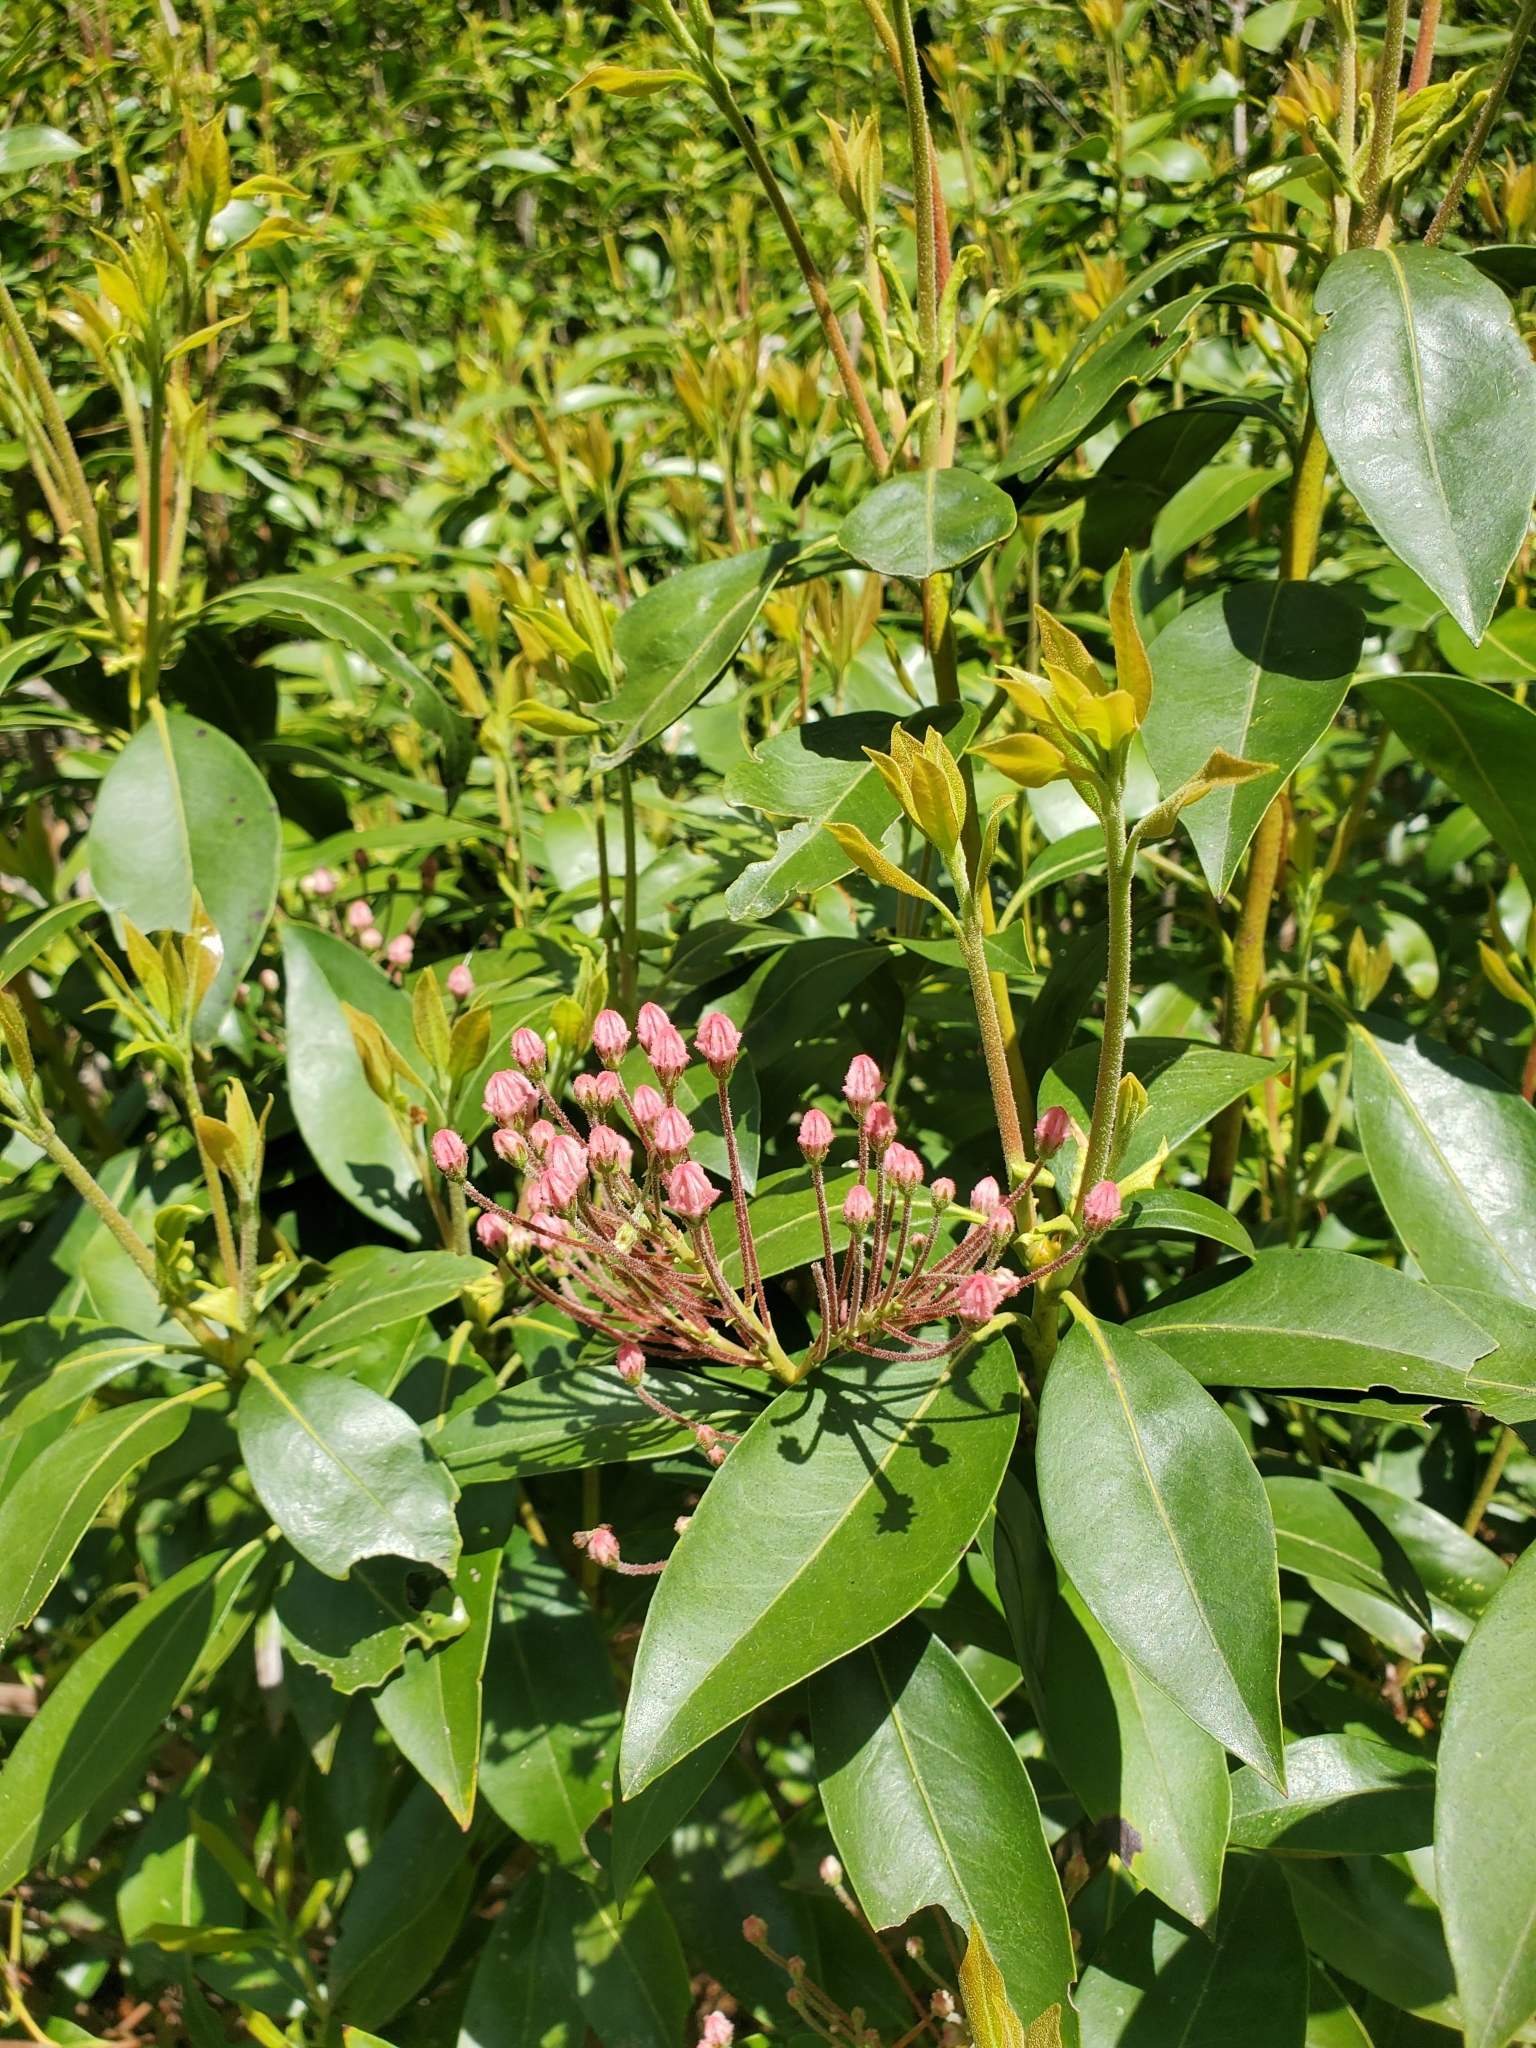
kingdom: Plantae
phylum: Tracheophyta
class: Magnoliopsida
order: Ericales
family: Ericaceae
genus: Kalmia
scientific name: Kalmia latifolia
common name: Mountain-laurel
